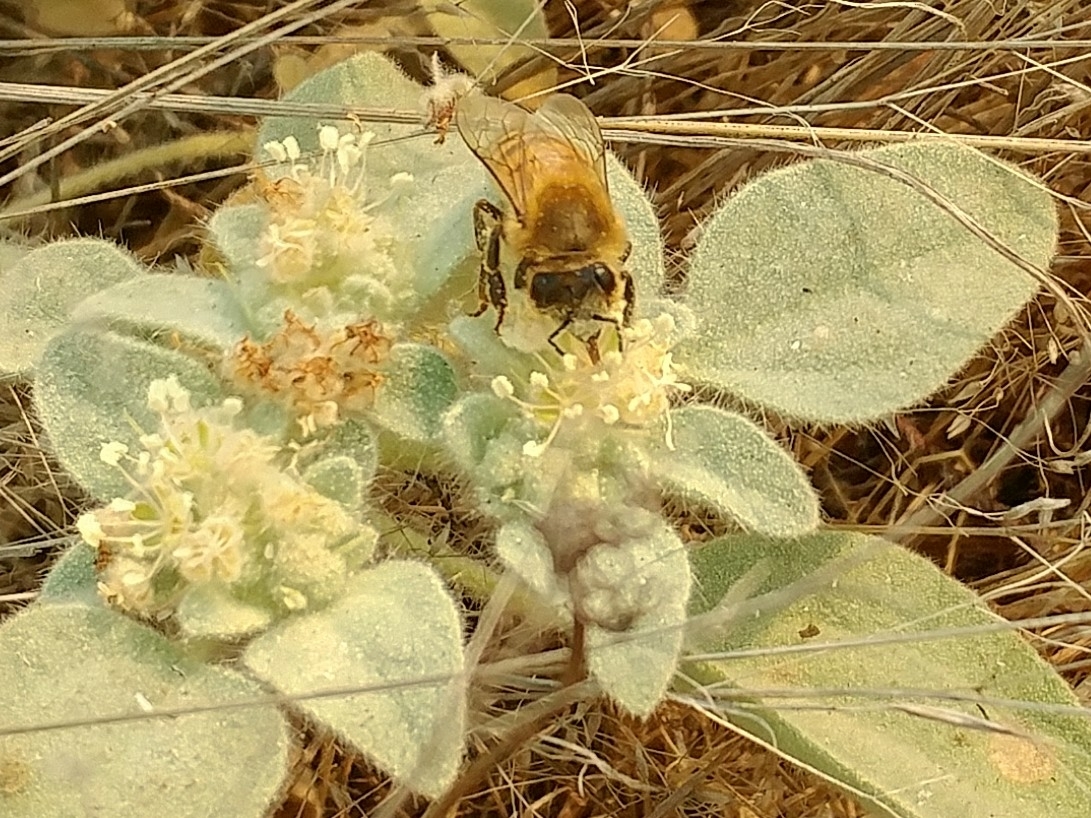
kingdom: Animalia
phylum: Arthropoda
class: Insecta
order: Hymenoptera
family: Apidae
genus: Apis
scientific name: Apis mellifera
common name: Honey bee
